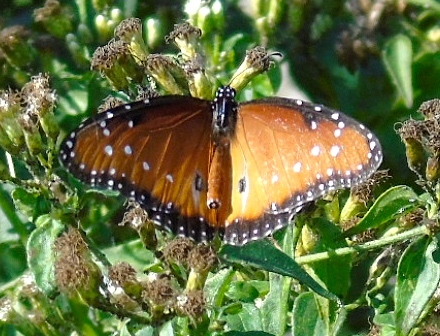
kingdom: Animalia
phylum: Arthropoda
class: Insecta
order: Lepidoptera
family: Nymphalidae
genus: Danaus
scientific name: Danaus gilippus
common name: Queen
